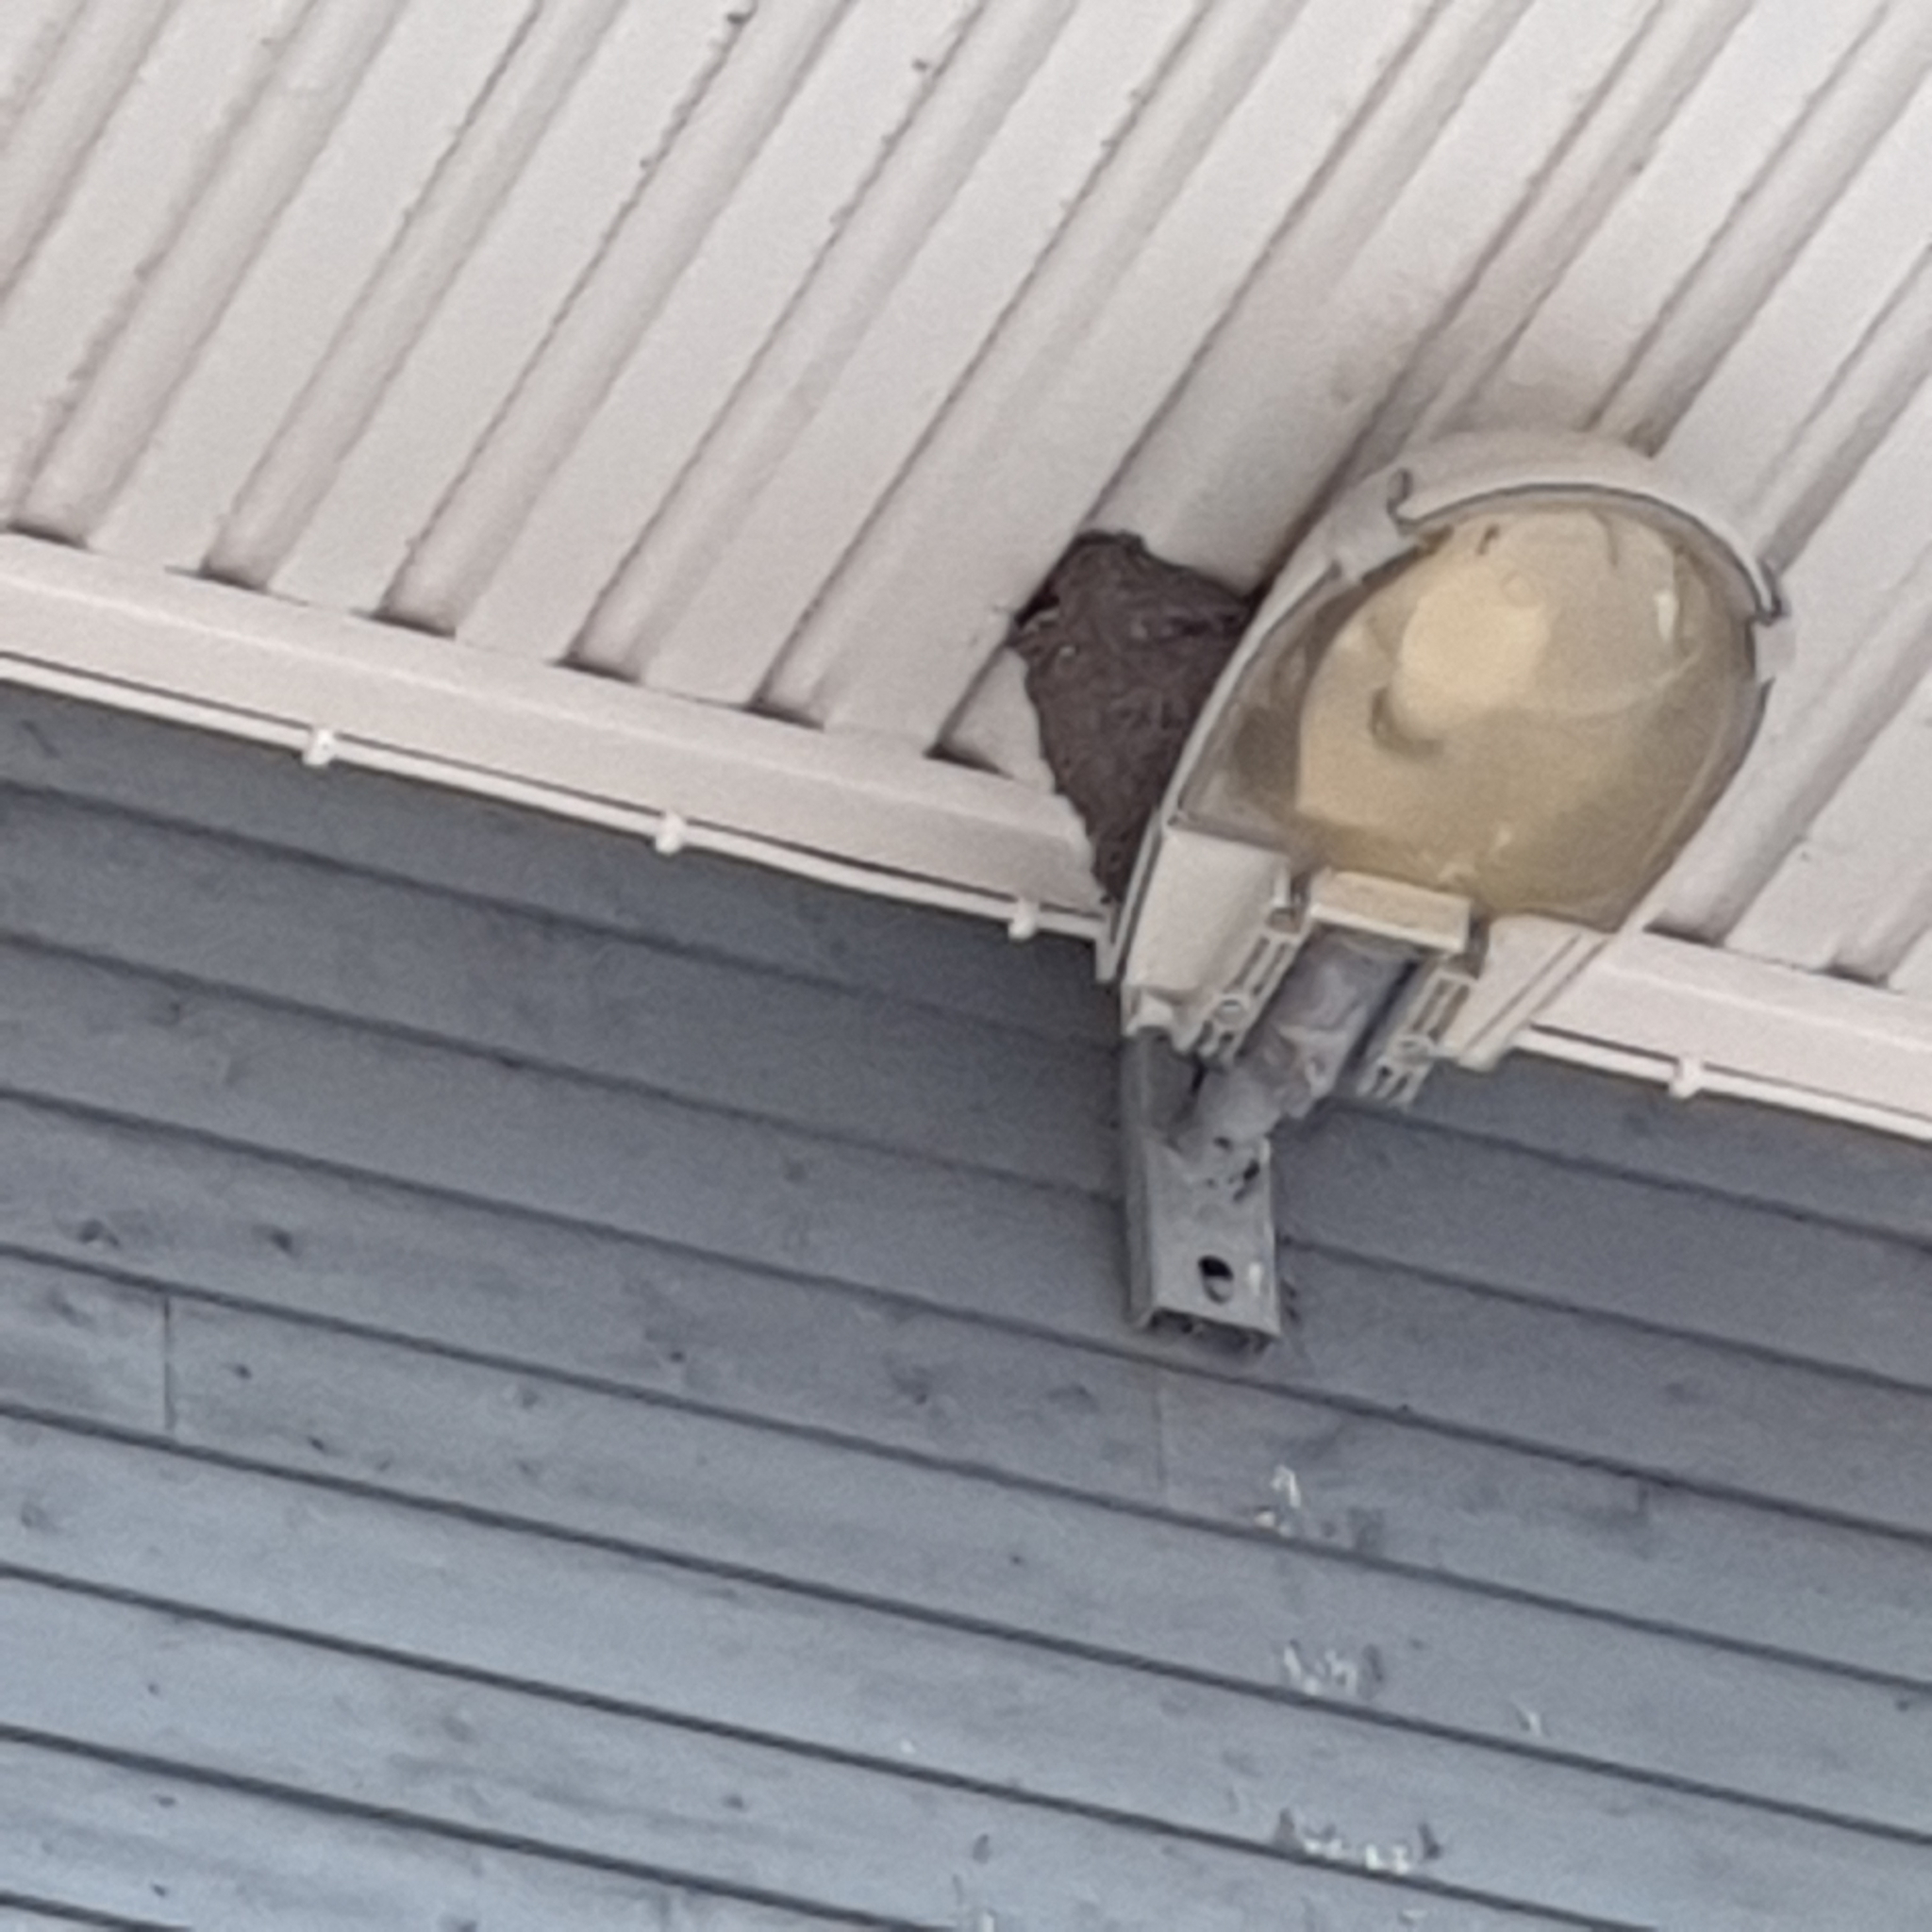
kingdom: Animalia
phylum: Chordata
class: Aves
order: Passeriformes
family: Hirundinidae
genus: Delichon
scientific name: Delichon urbicum
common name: Common house martin
